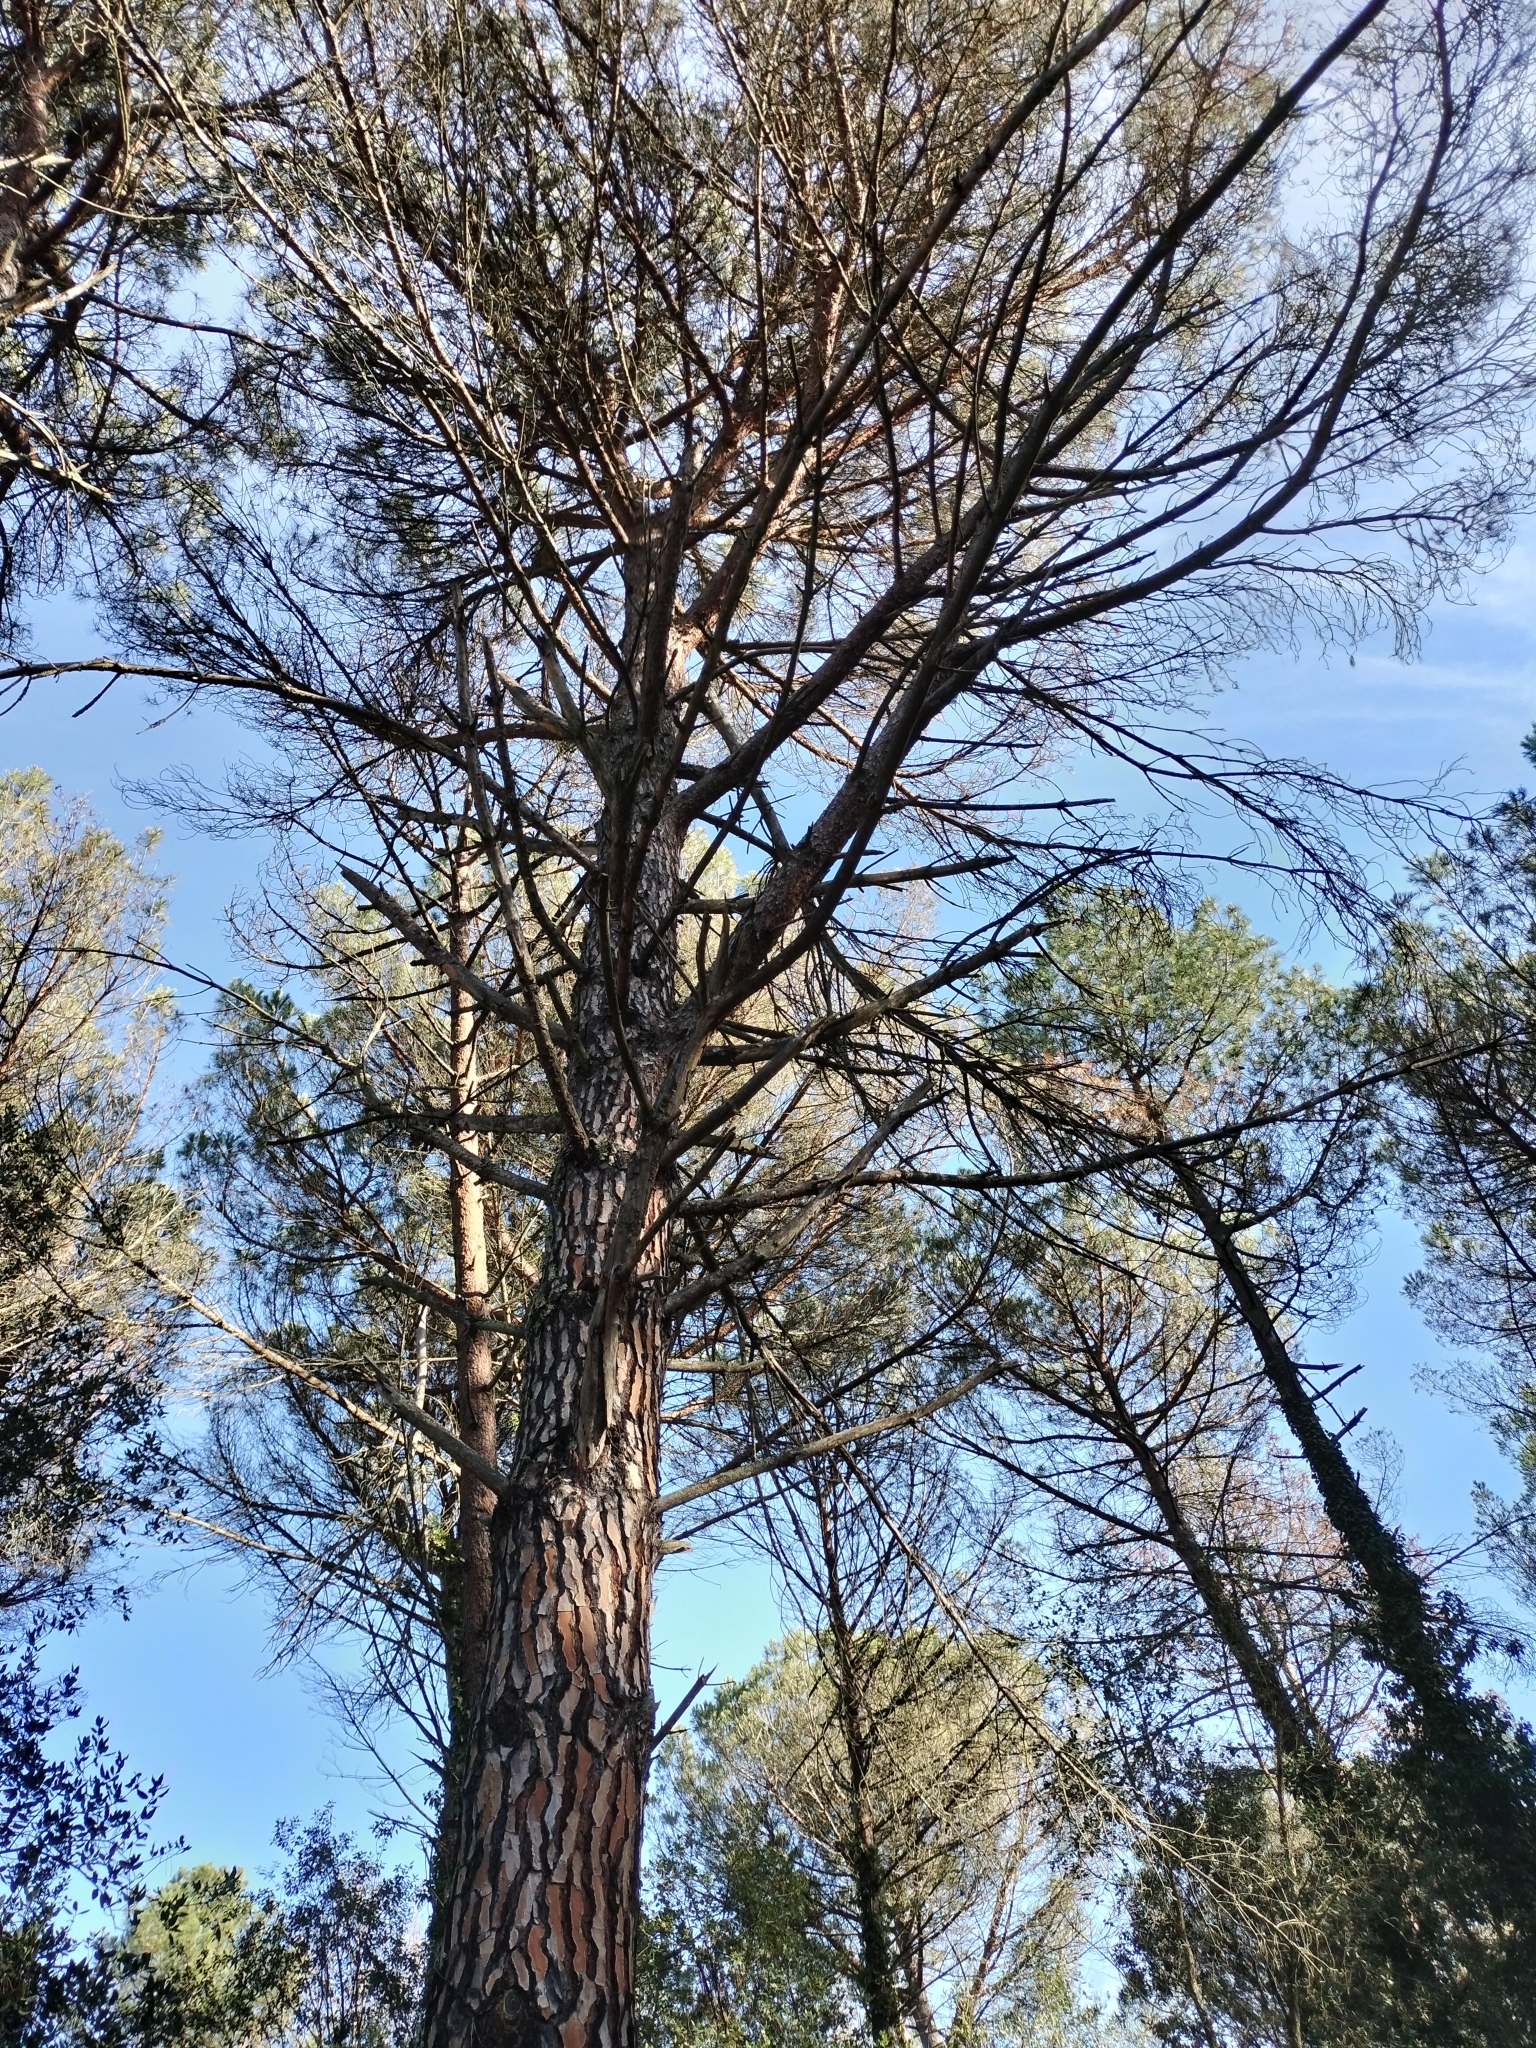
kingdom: Plantae
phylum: Tracheophyta
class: Pinopsida
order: Pinales
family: Pinaceae
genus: Pinus
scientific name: Pinus pinea
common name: Italian stone pine
